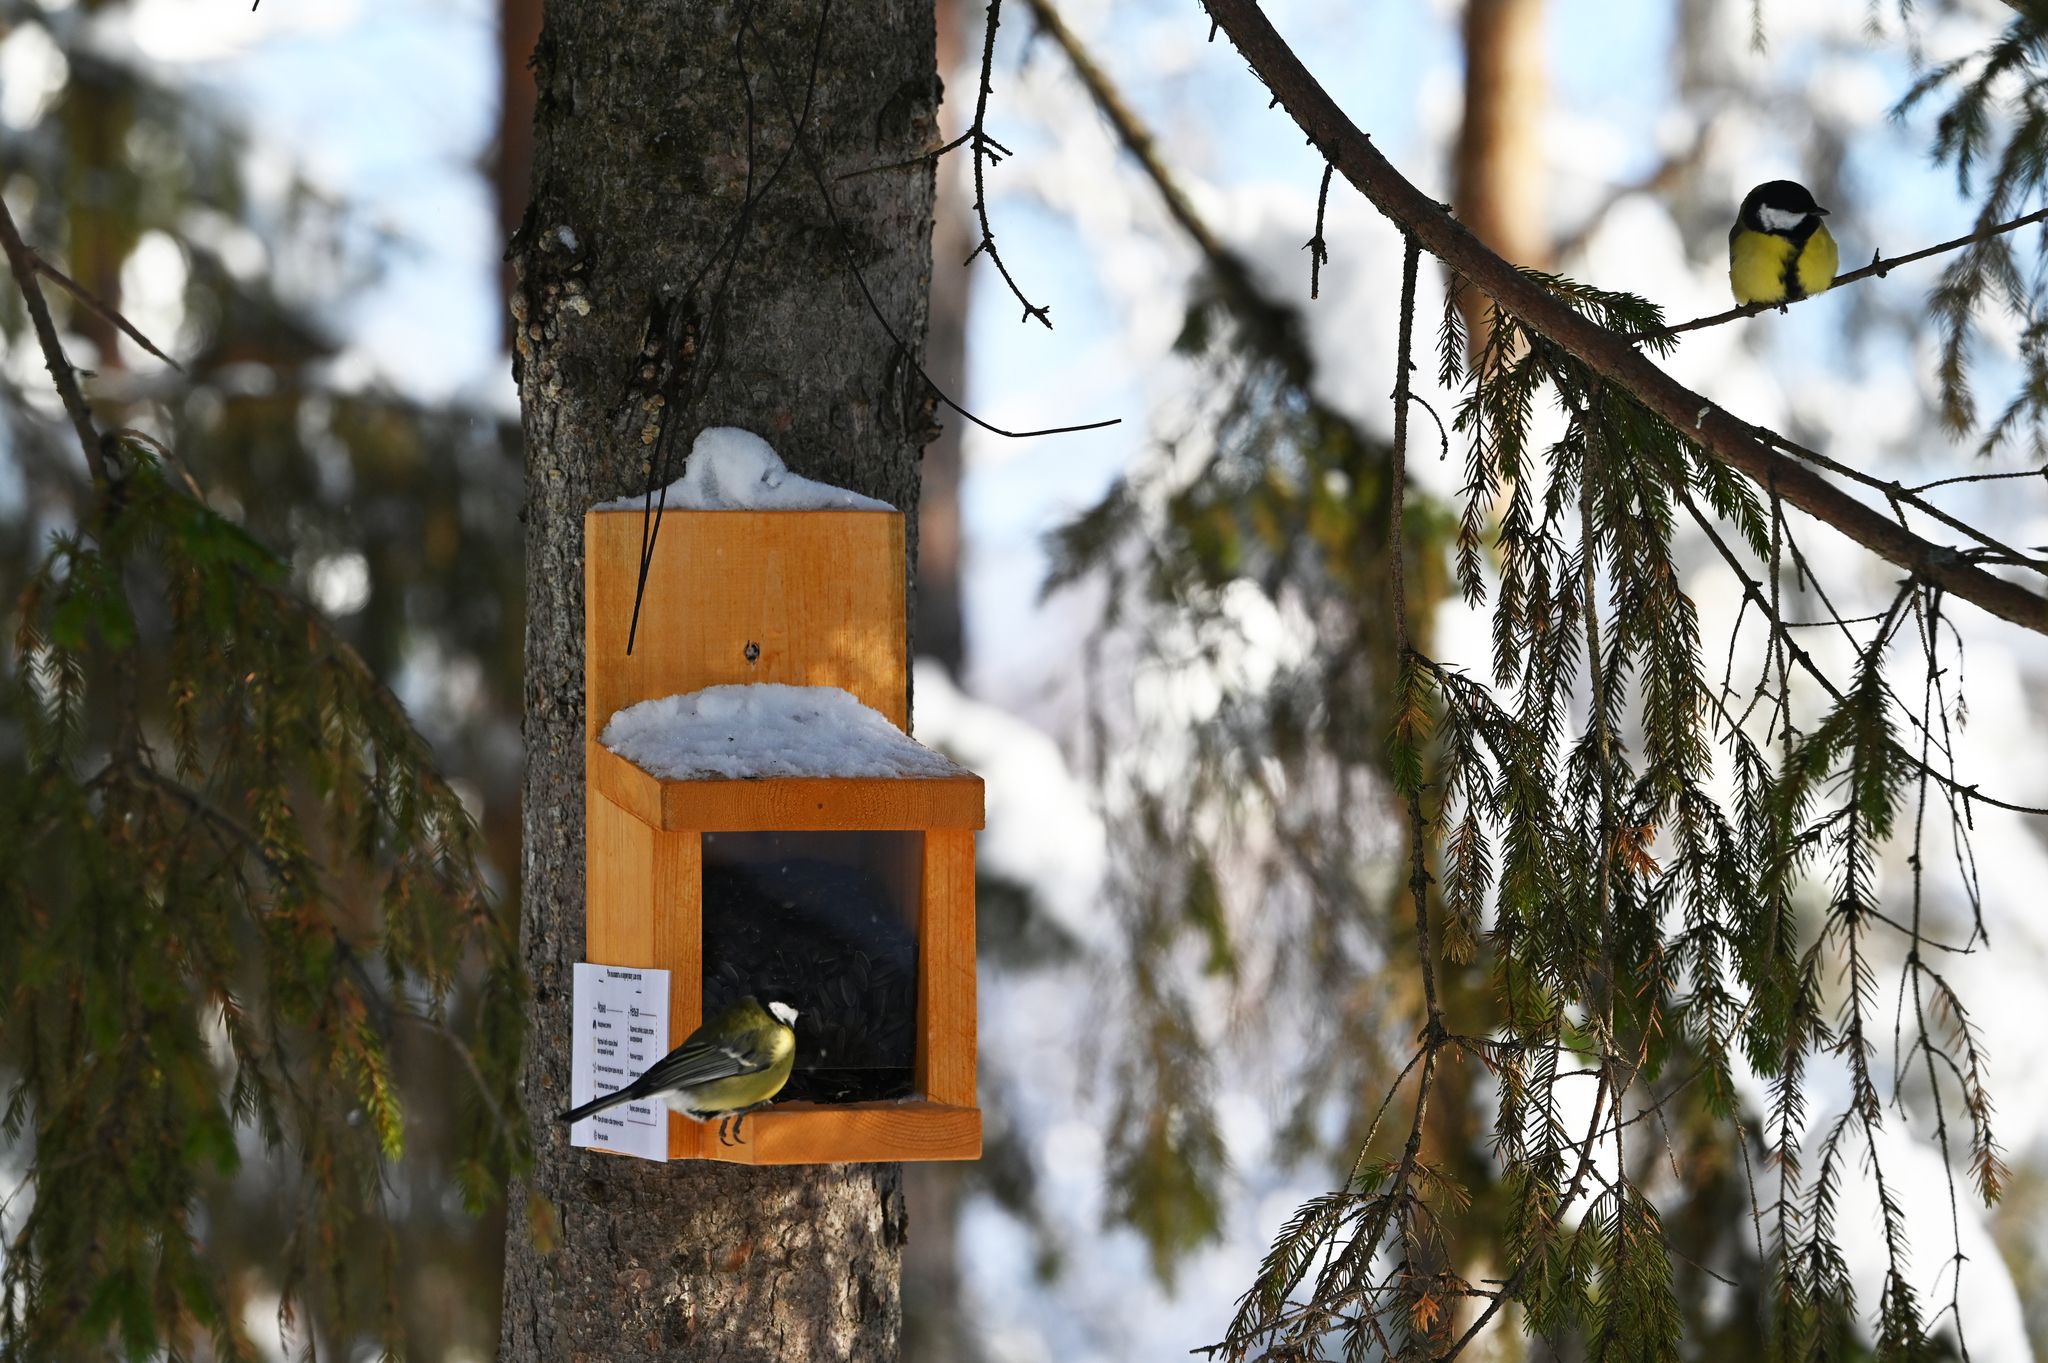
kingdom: Animalia
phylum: Chordata
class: Aves
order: Passeriformes
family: Paridae
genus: Parus
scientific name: Parus major
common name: Great tit
